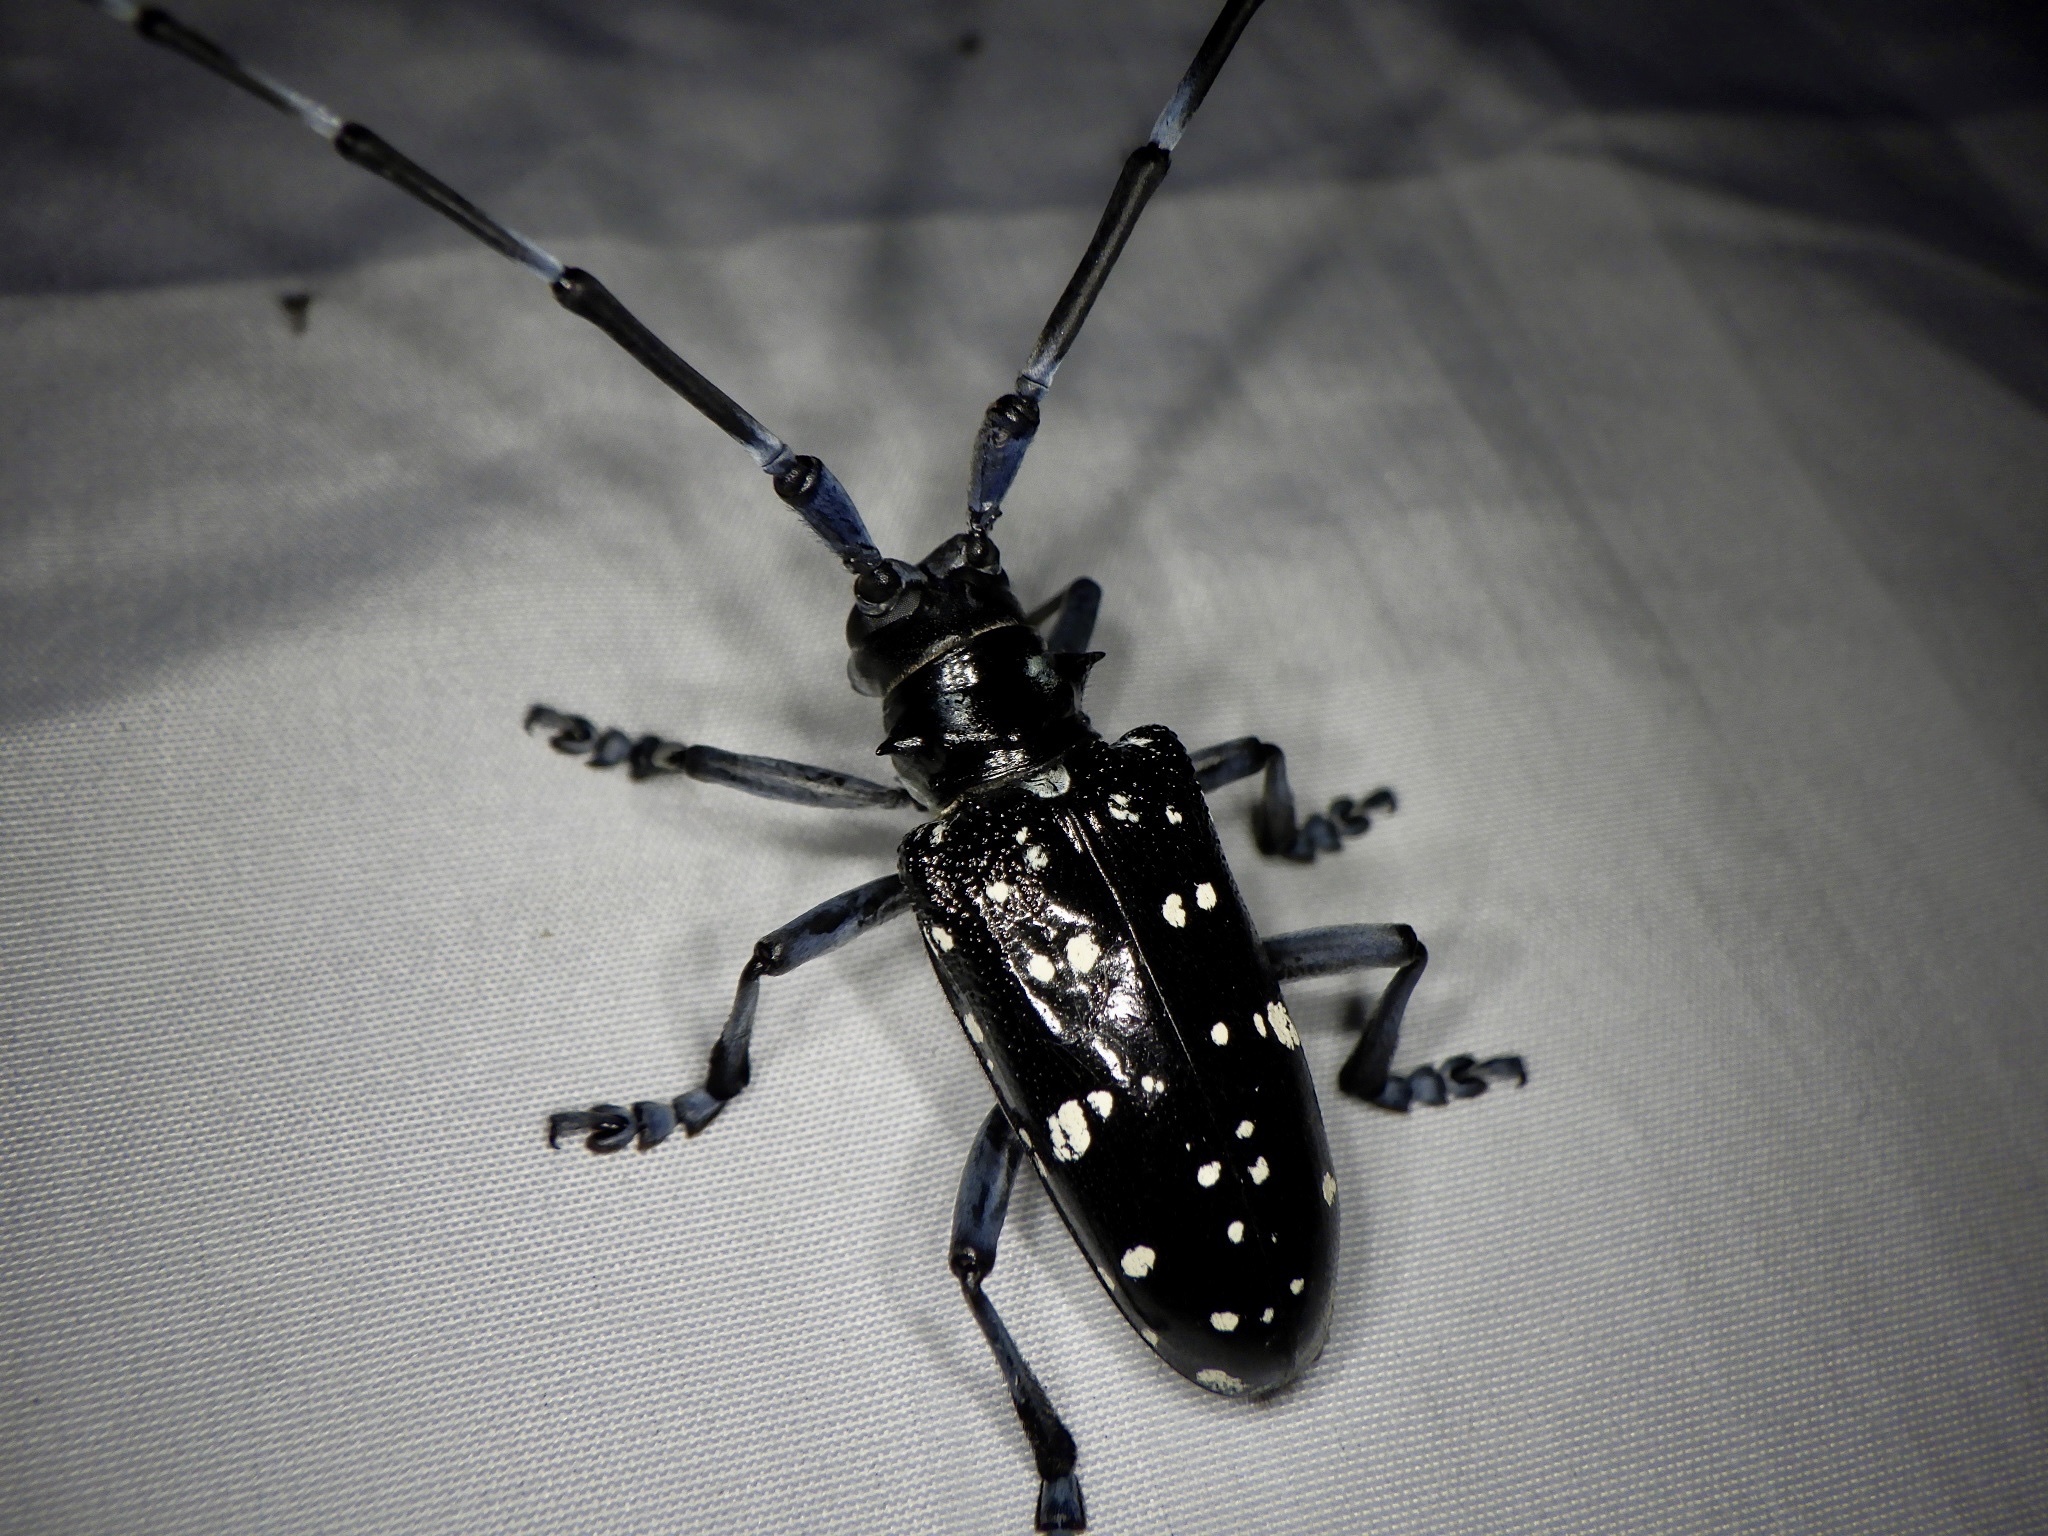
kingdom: Animalia
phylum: Arthropoda
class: Insecta
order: Coleoptera
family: Cerambycidae
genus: Anoplophora
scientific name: Anoplophora chinensis
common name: Citrus longhorned beetle
